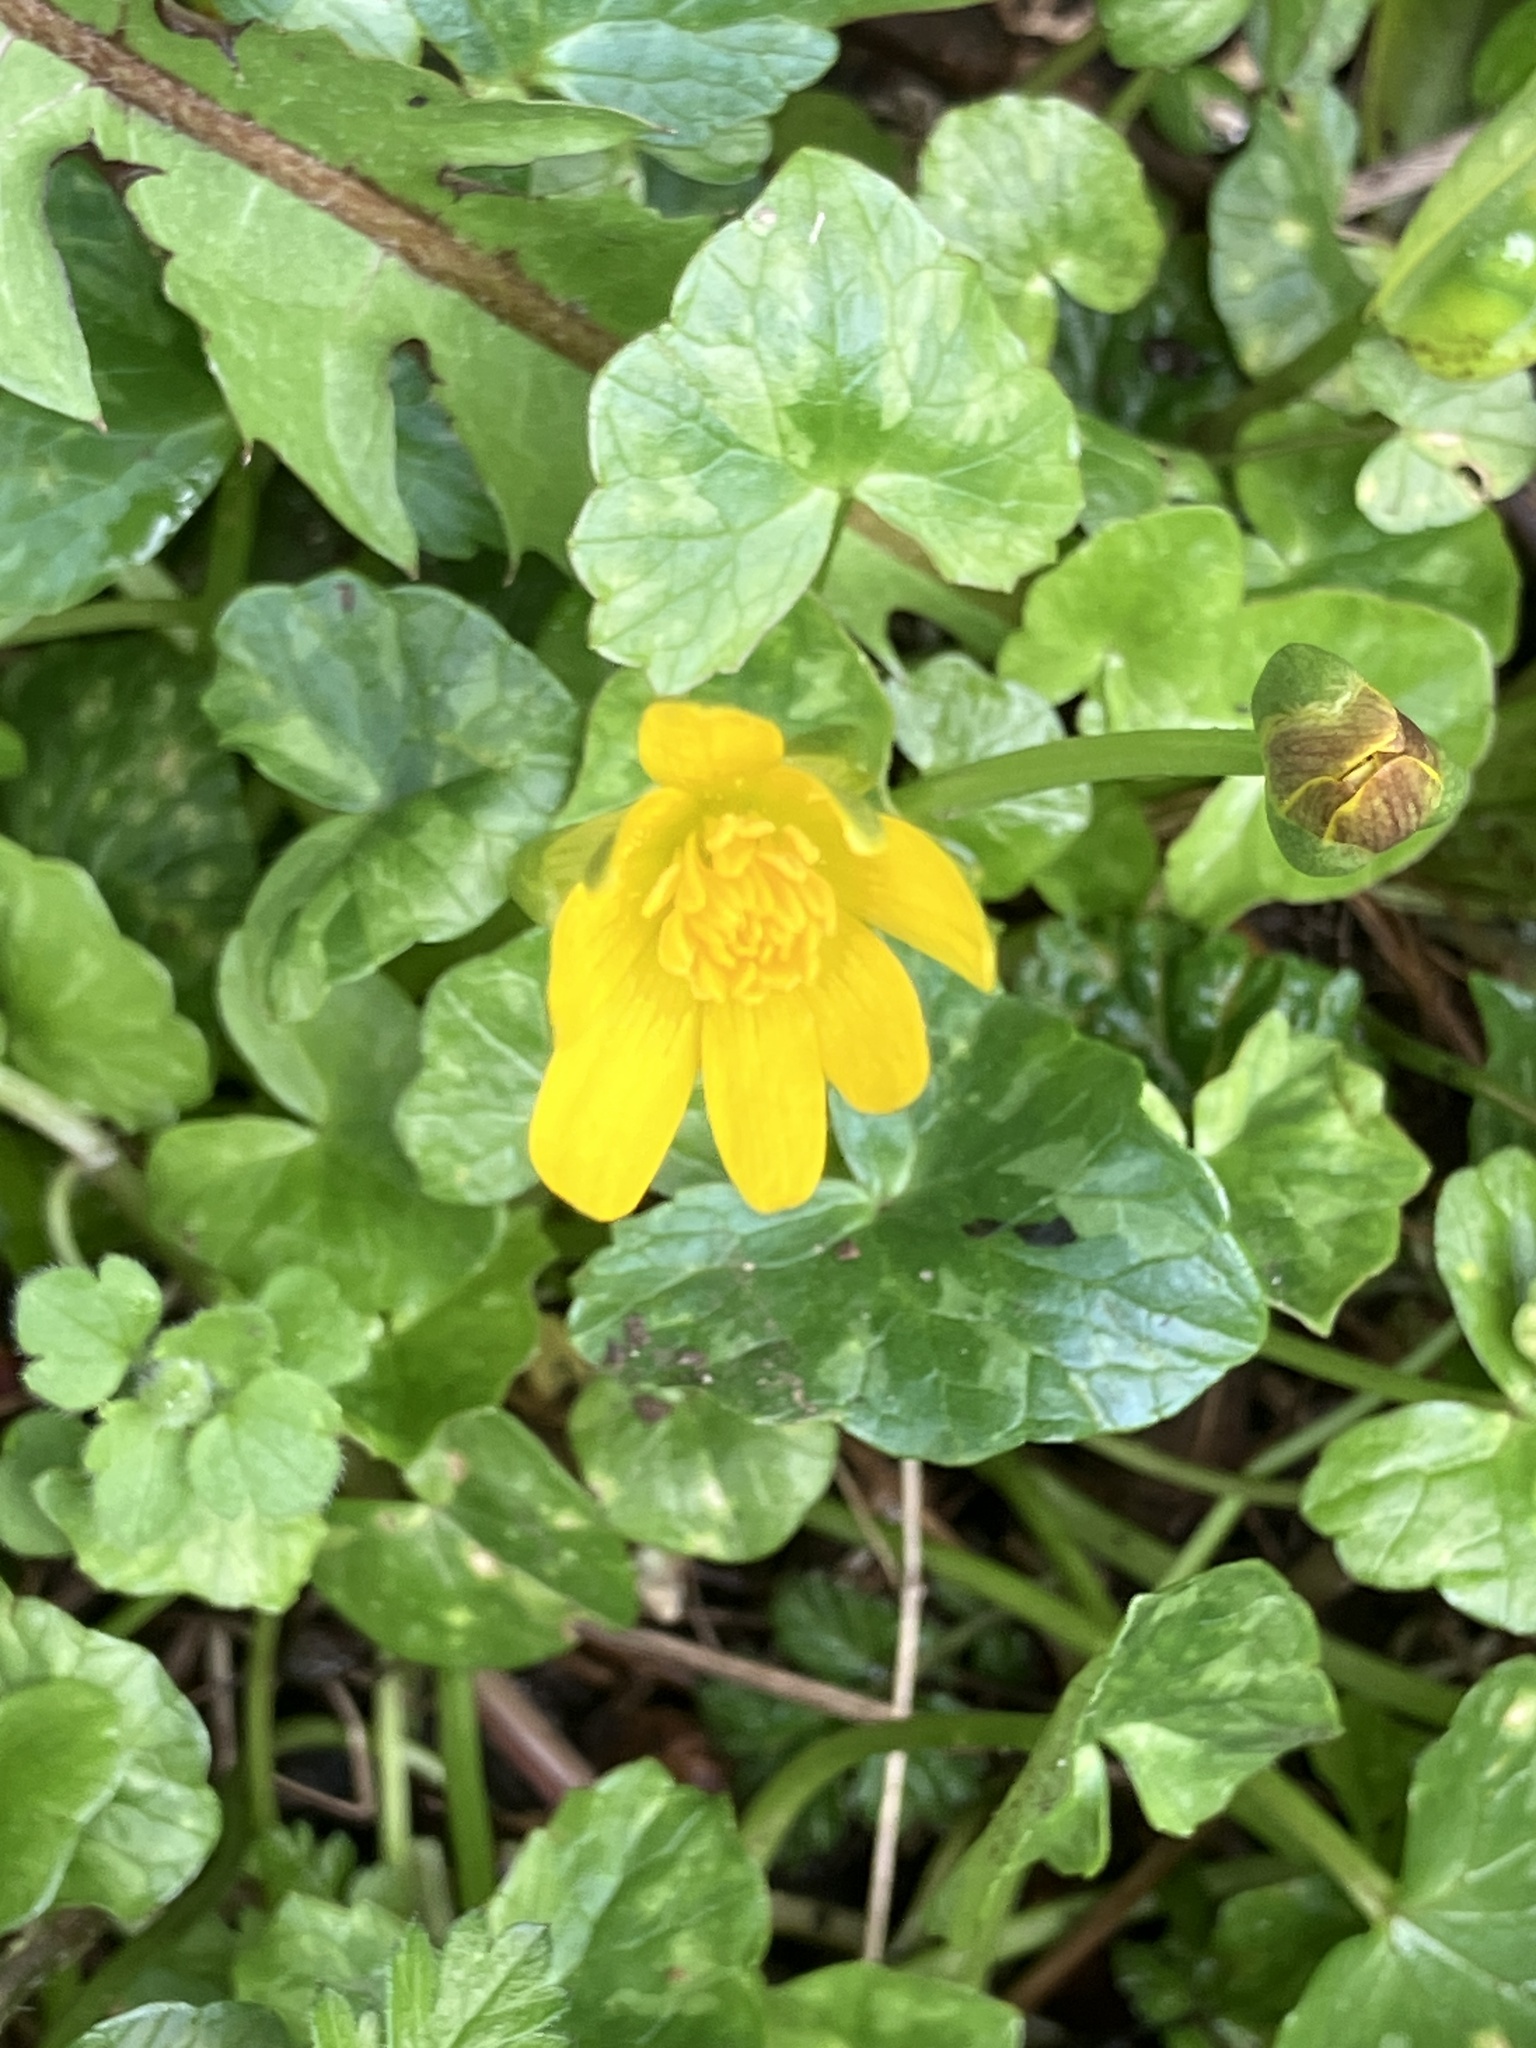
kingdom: Plantae
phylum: Tracheophyta
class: Magnoliopsida
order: Ranunculales
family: Ranunculaceae
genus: Ficaria
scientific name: Ficaria verna
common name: Lesser celandine
